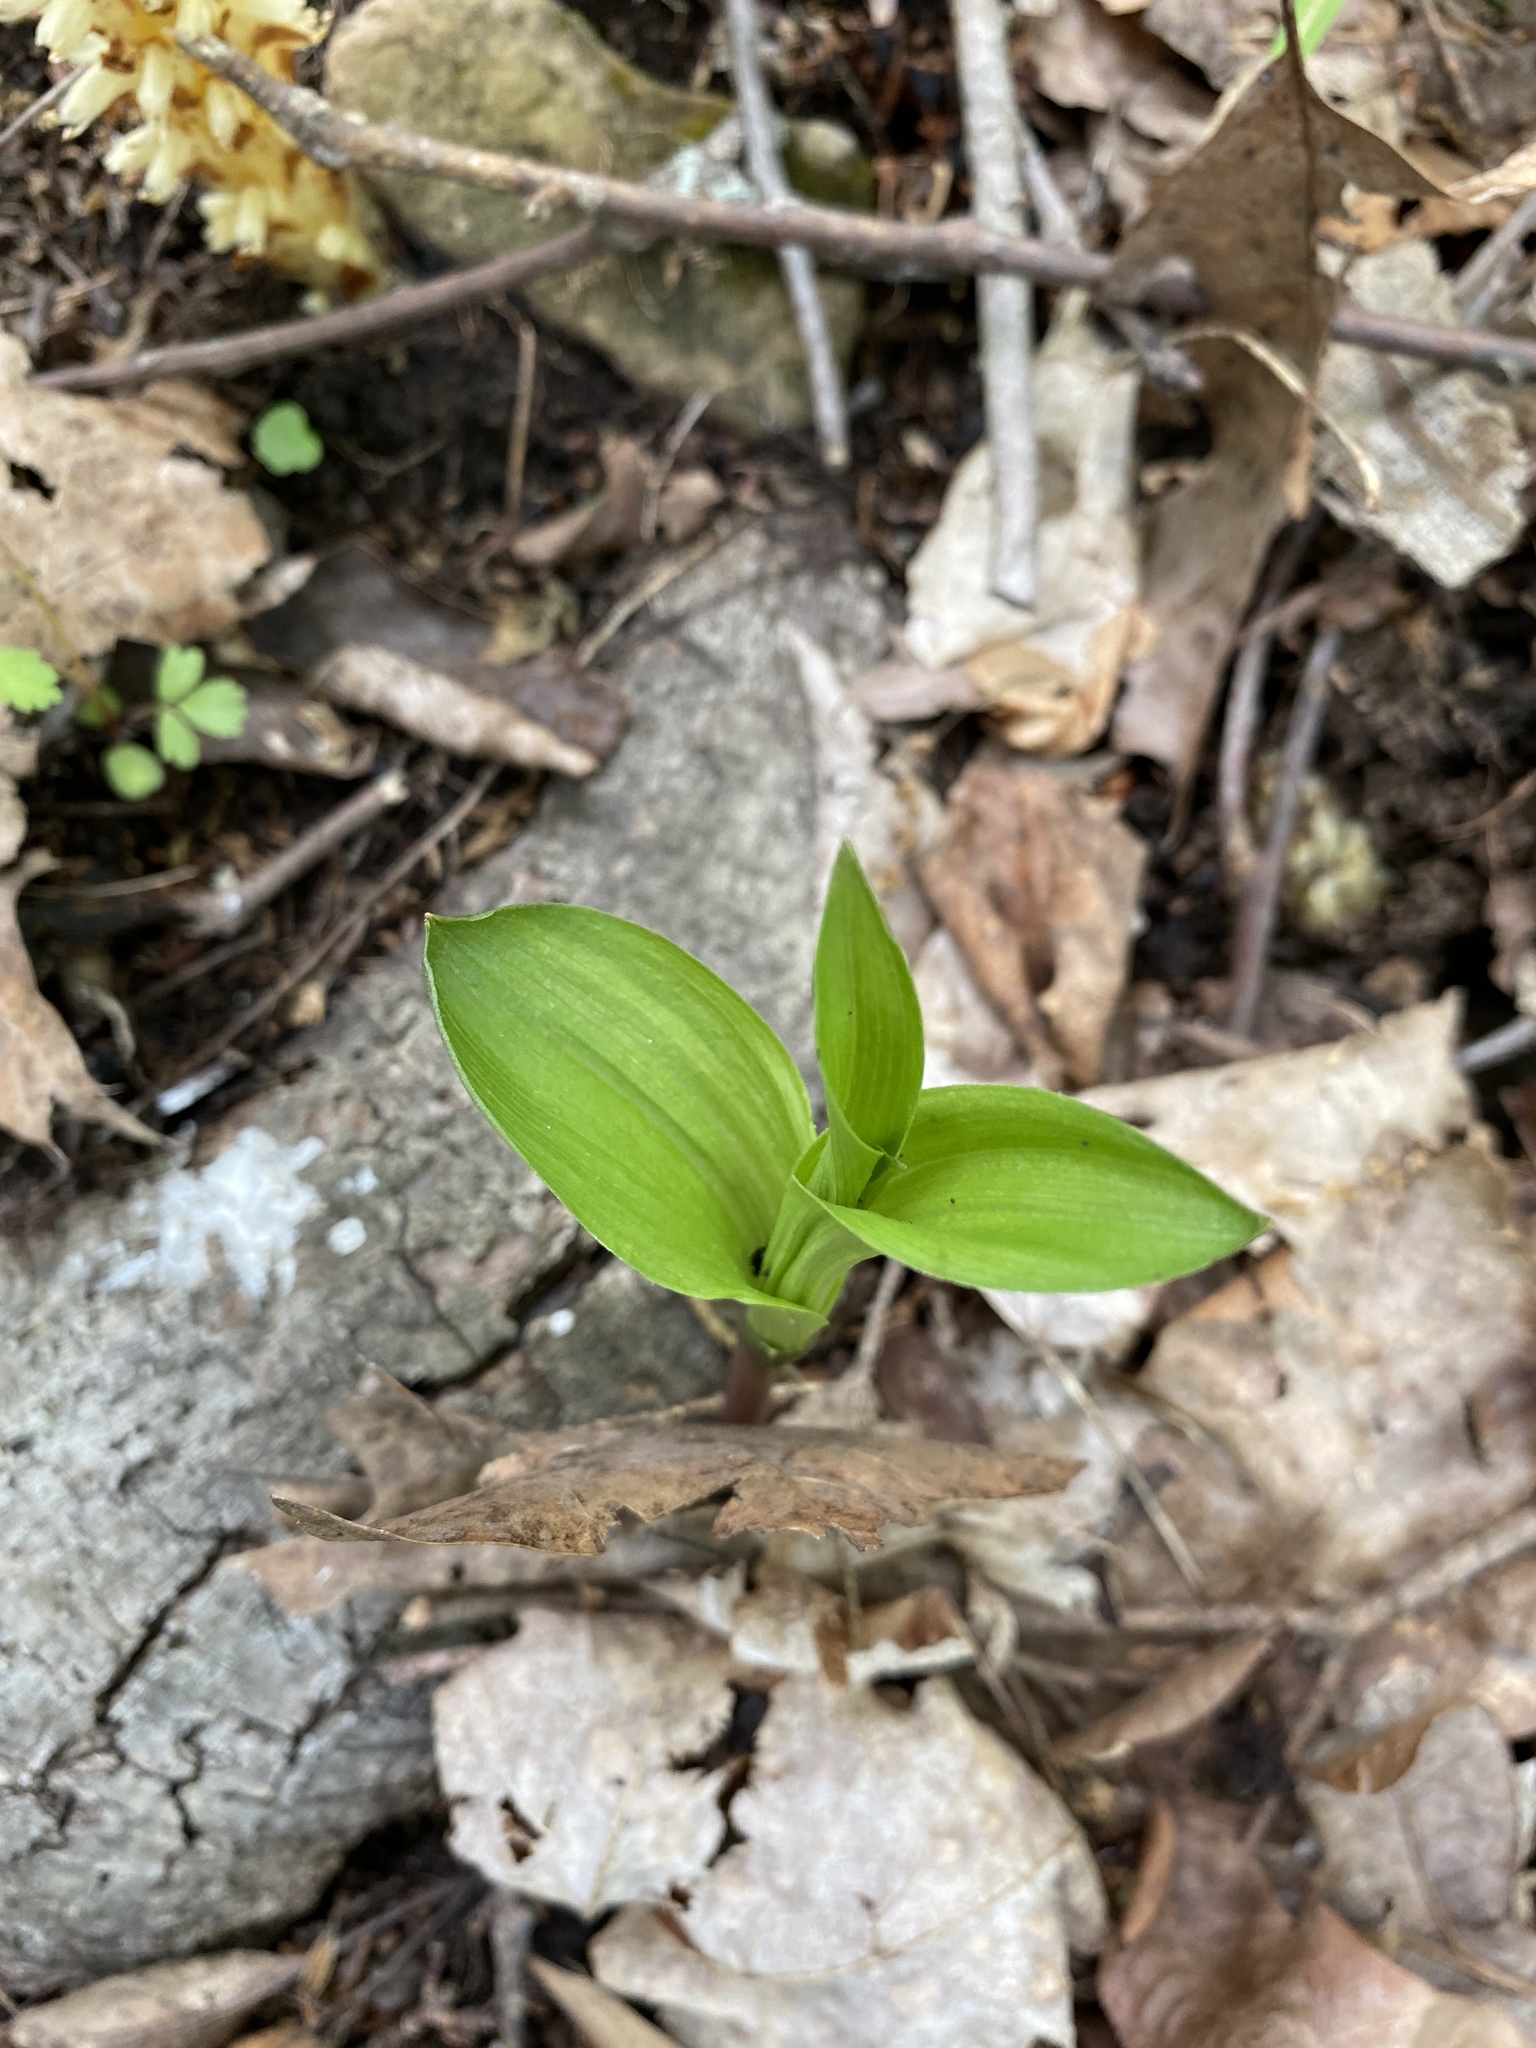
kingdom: Plantae
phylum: Tracheophyta
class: Liliopsida
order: Asparagales
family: Orchidaceae
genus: Epipactis
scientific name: Epipactis helleborine
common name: Broad-leaved helleborine
